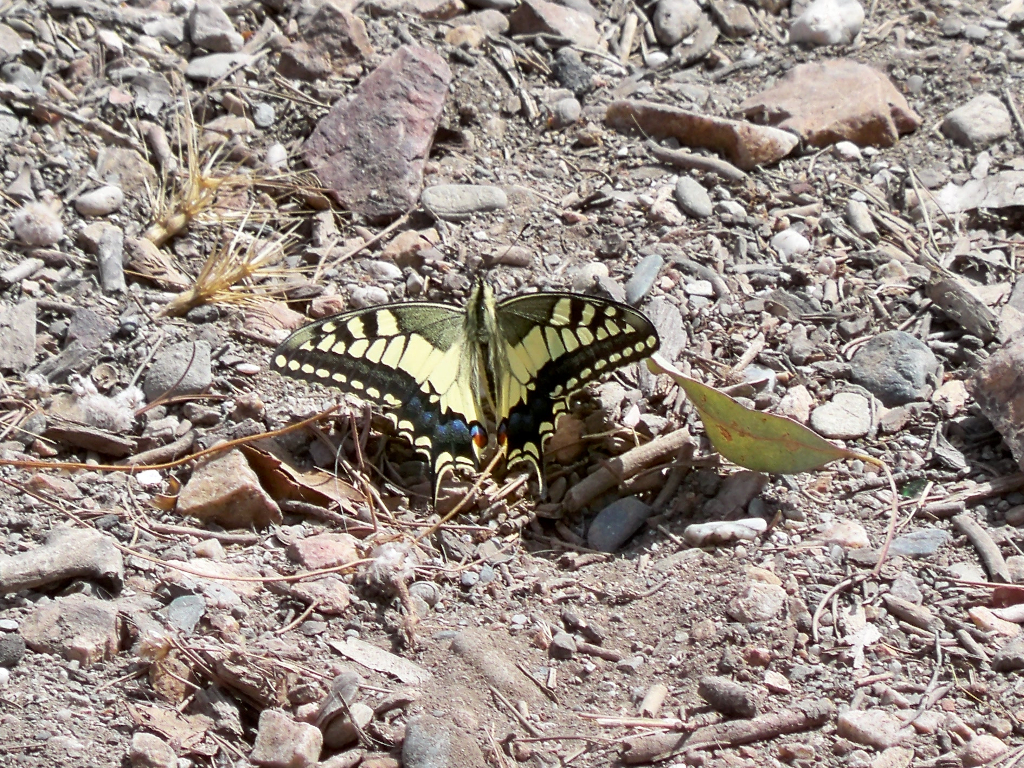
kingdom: Animalia
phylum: Arthropoda
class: Insecta
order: Lepidoptera
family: Papilionidae
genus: Papilio
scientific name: Papilio machaon
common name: Swallowtail
